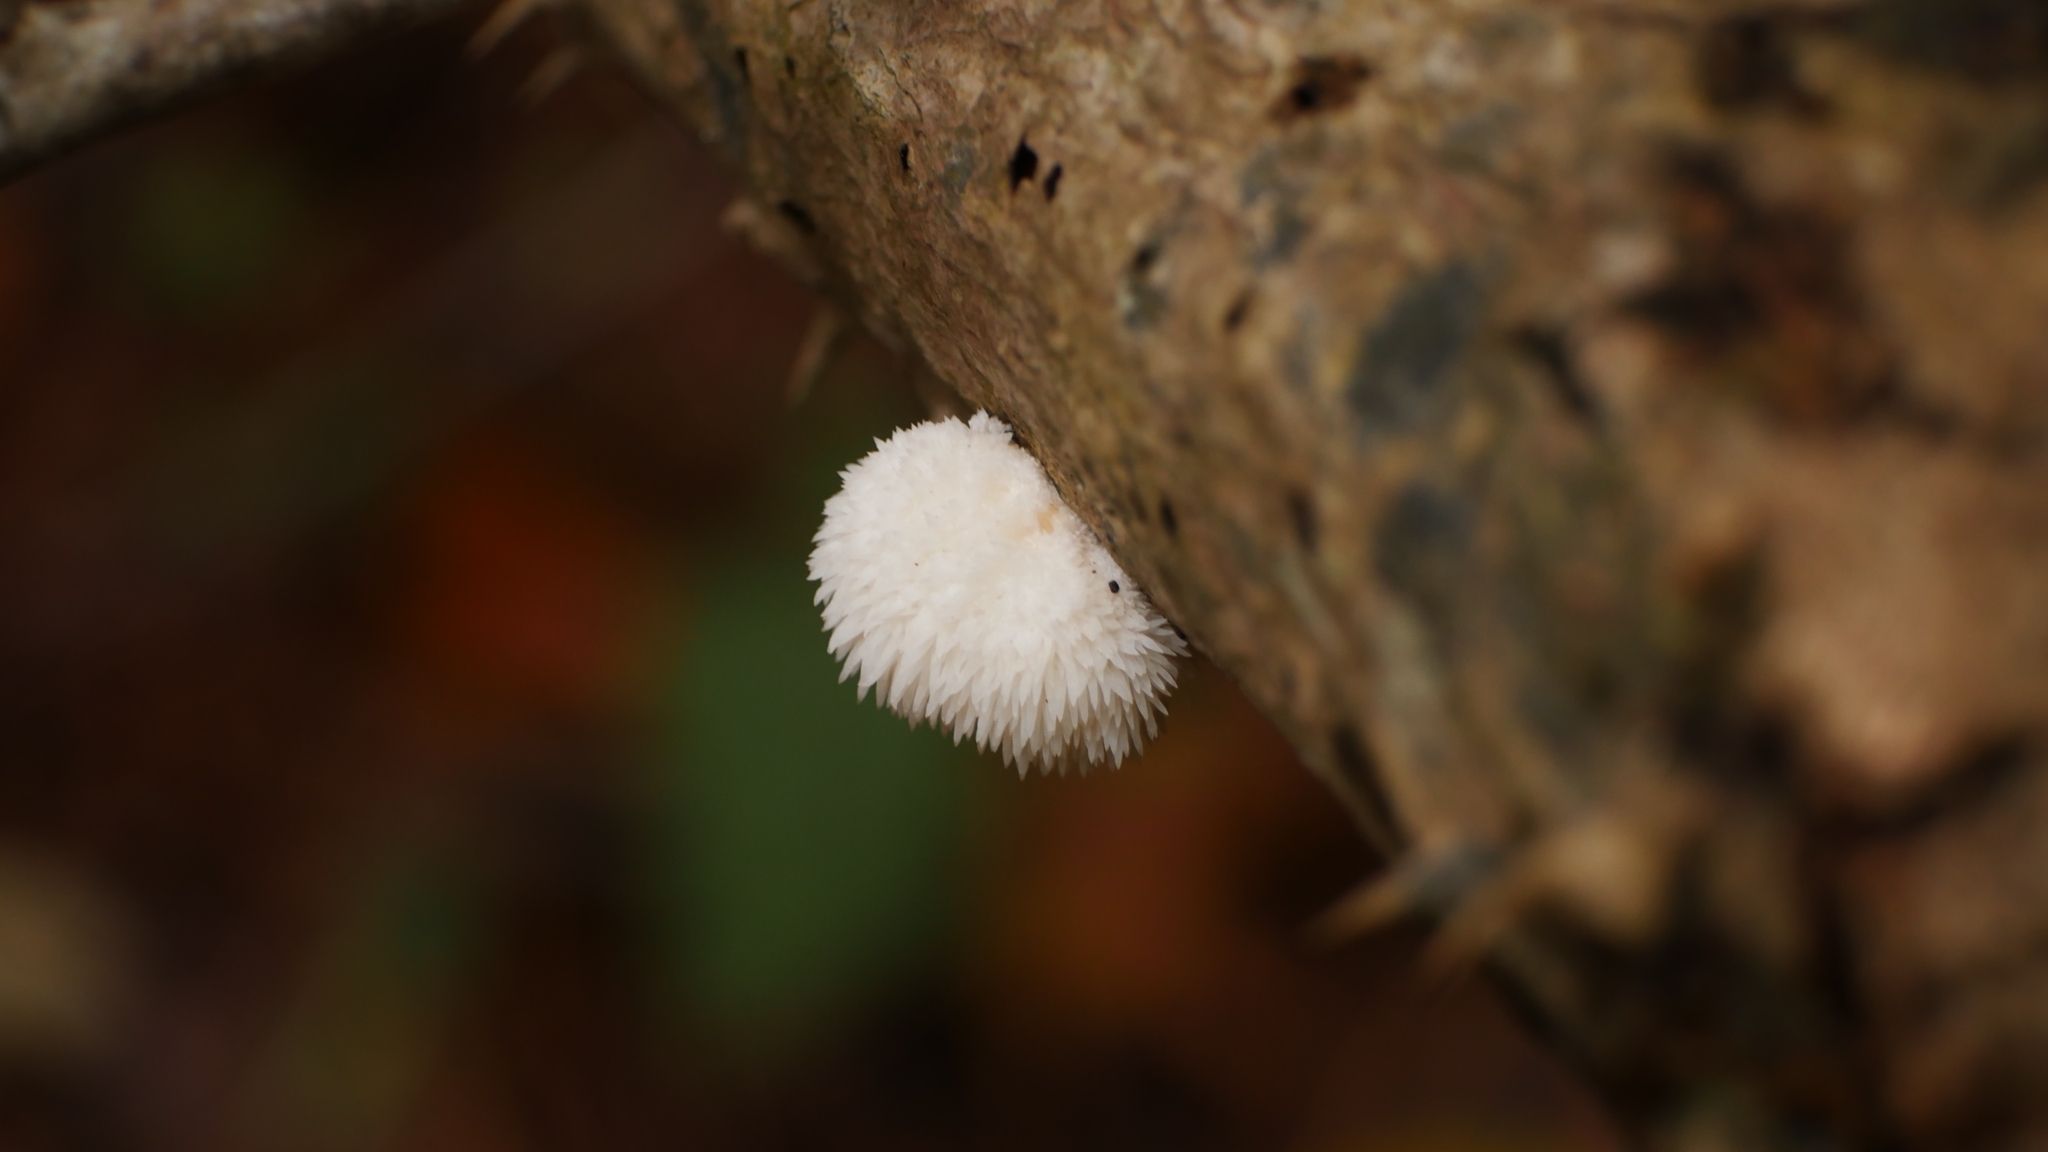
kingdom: Fungi
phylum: Basidiomycota
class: Agaricomycetes
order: Russulales
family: Hericiaceae
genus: Hericium
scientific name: Hericium erinaceus
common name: Bearded tooth
